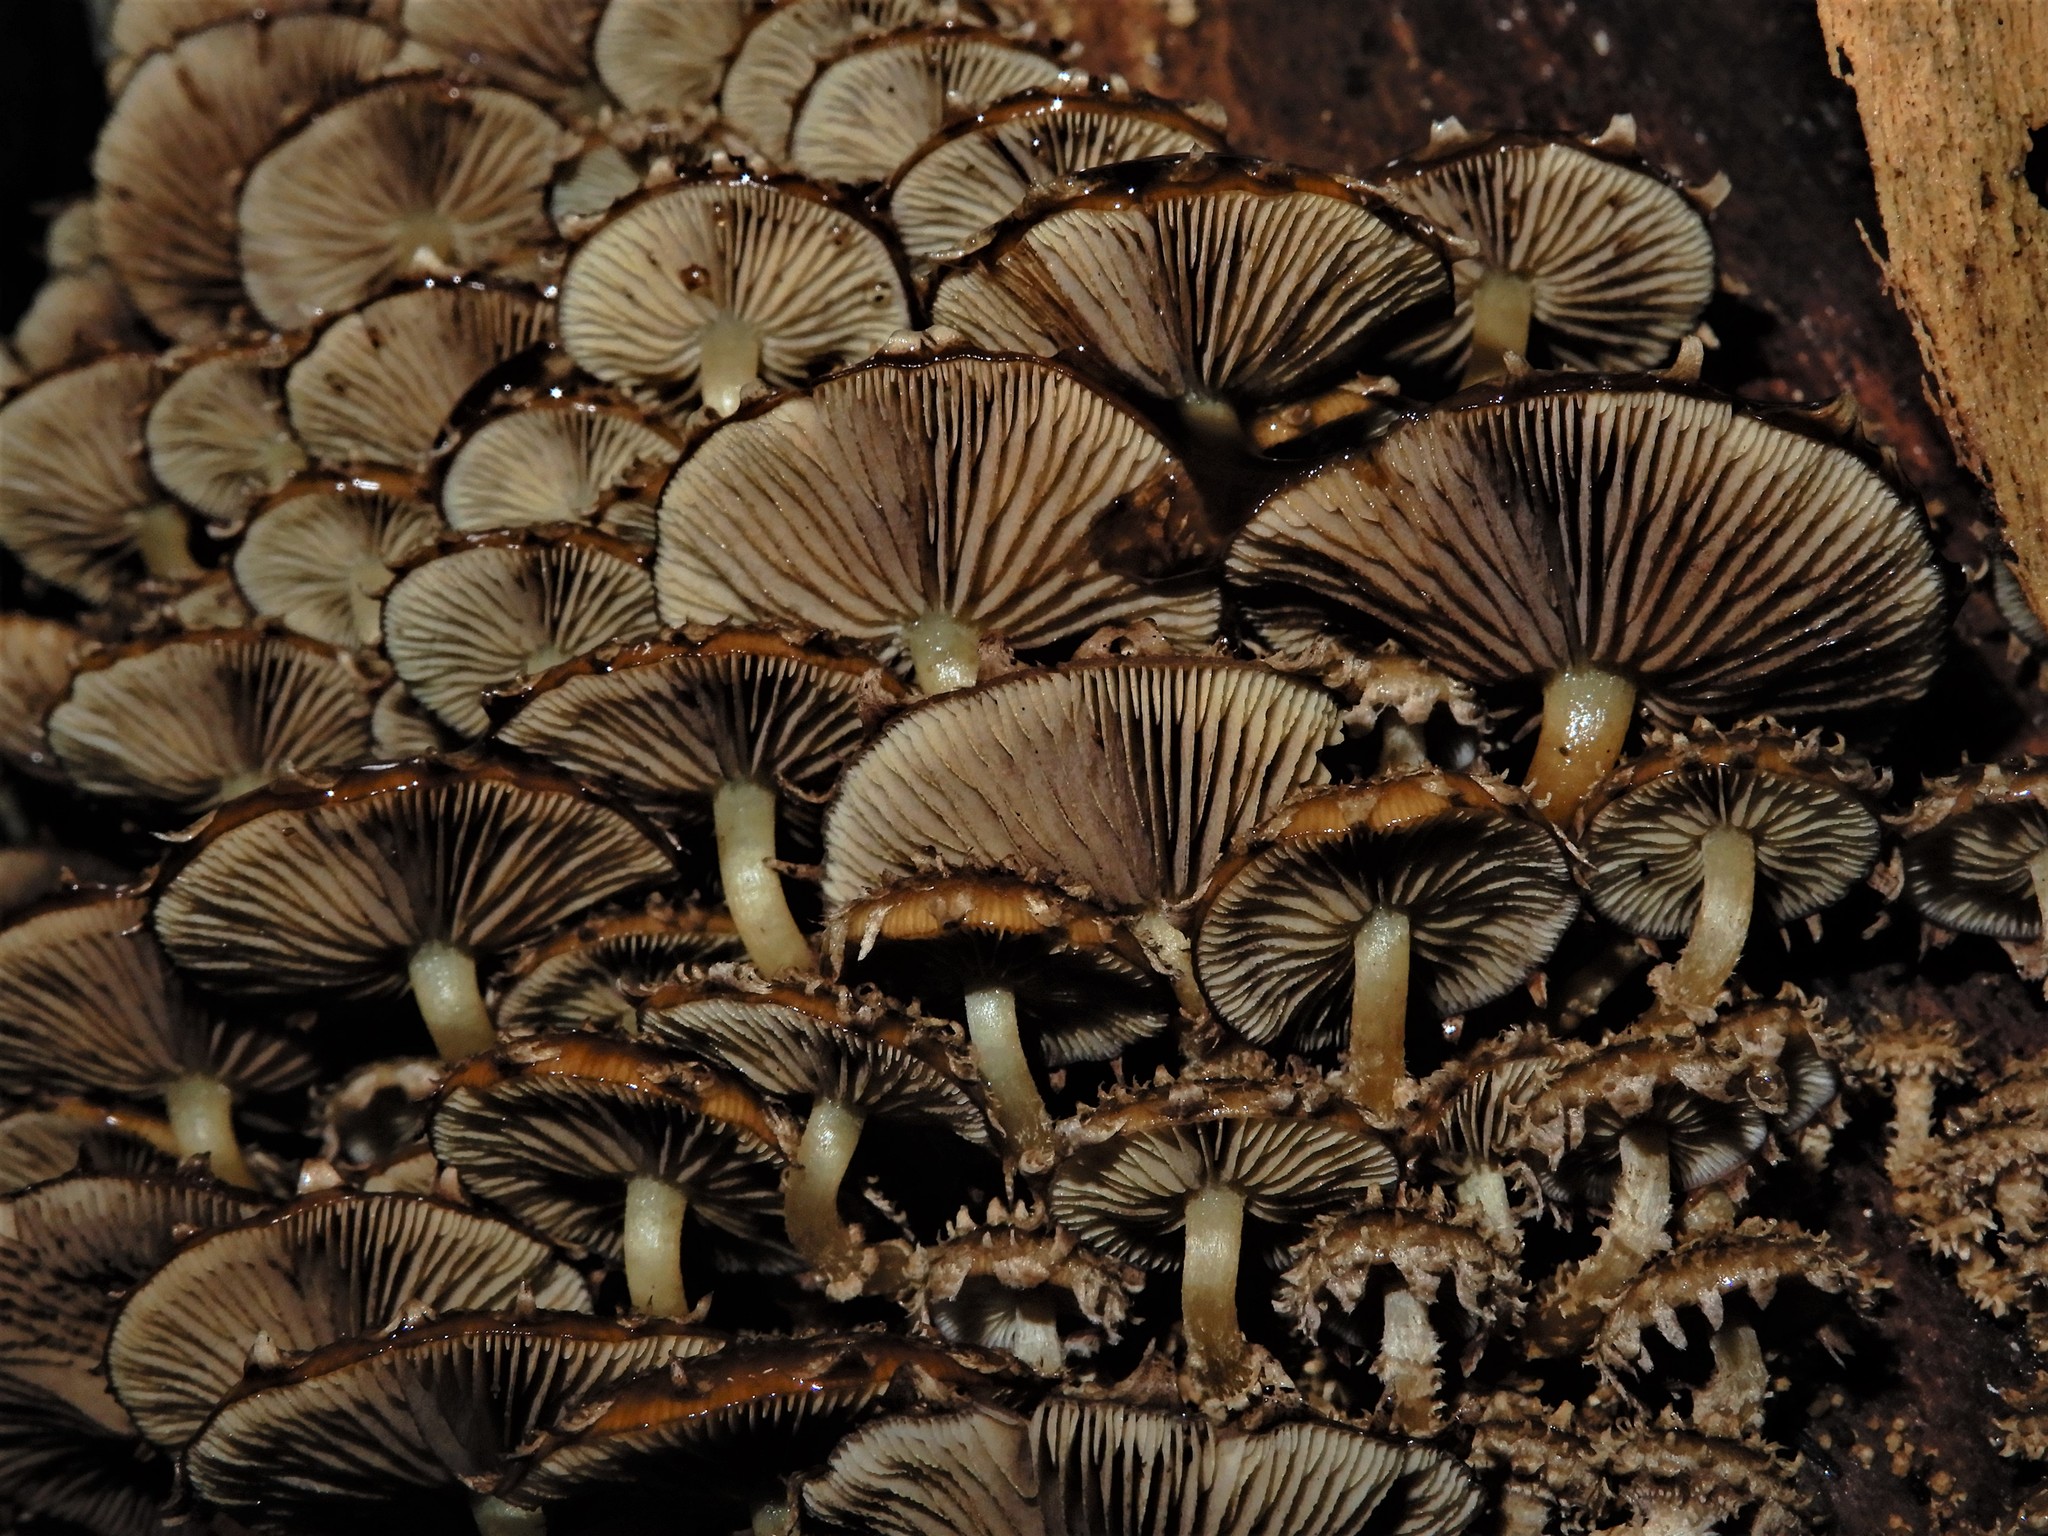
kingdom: Fungi
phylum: Basidiomycota
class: Agaricomycetes
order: Agaricales
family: Psathyrellaceae
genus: Psathyrella
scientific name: Psathyrella echinata
